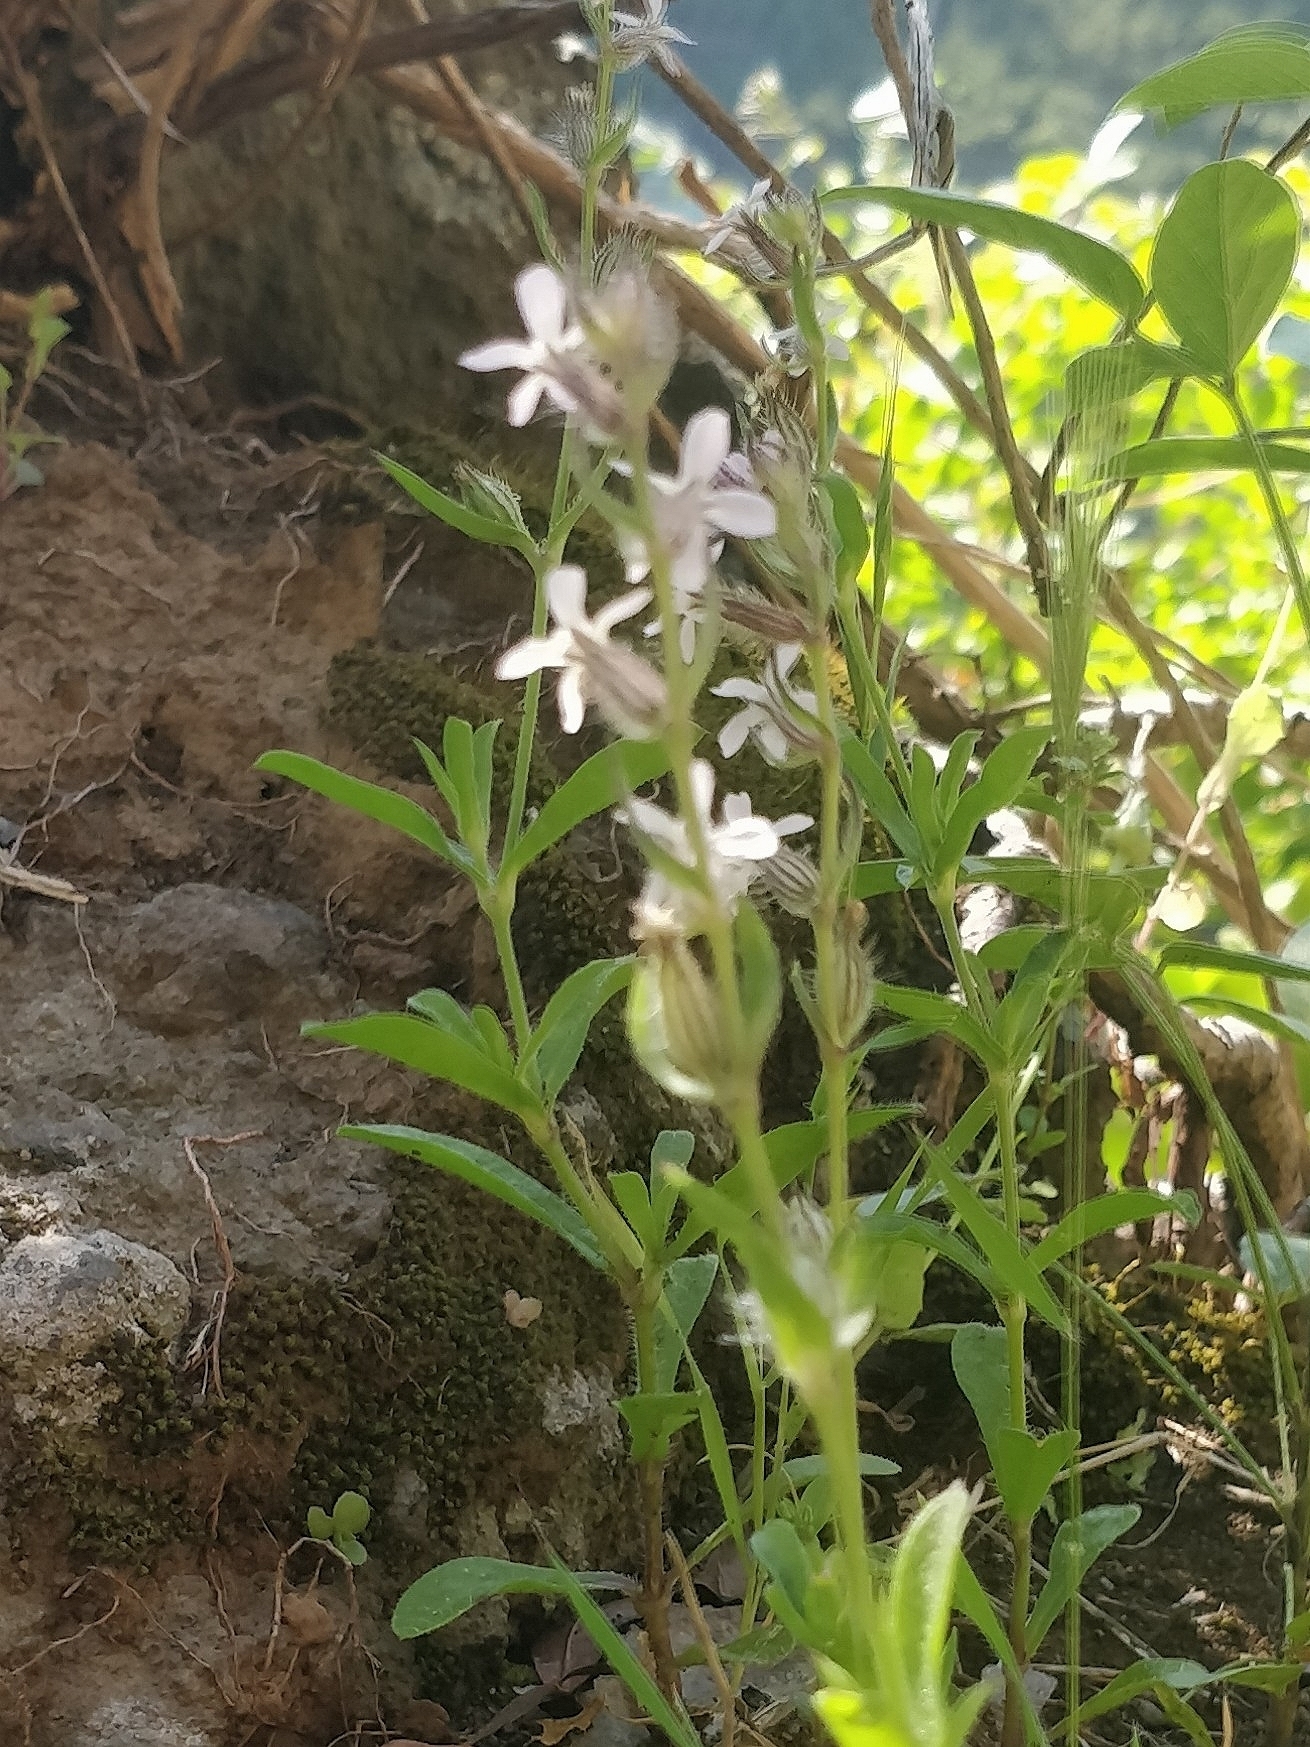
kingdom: Plantae
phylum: Tracheophyta
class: Magnoliopsida
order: Caryophyllales
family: Caryophyllaceae
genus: Silene
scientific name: Silene gallica
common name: Small-flowered catchfly
